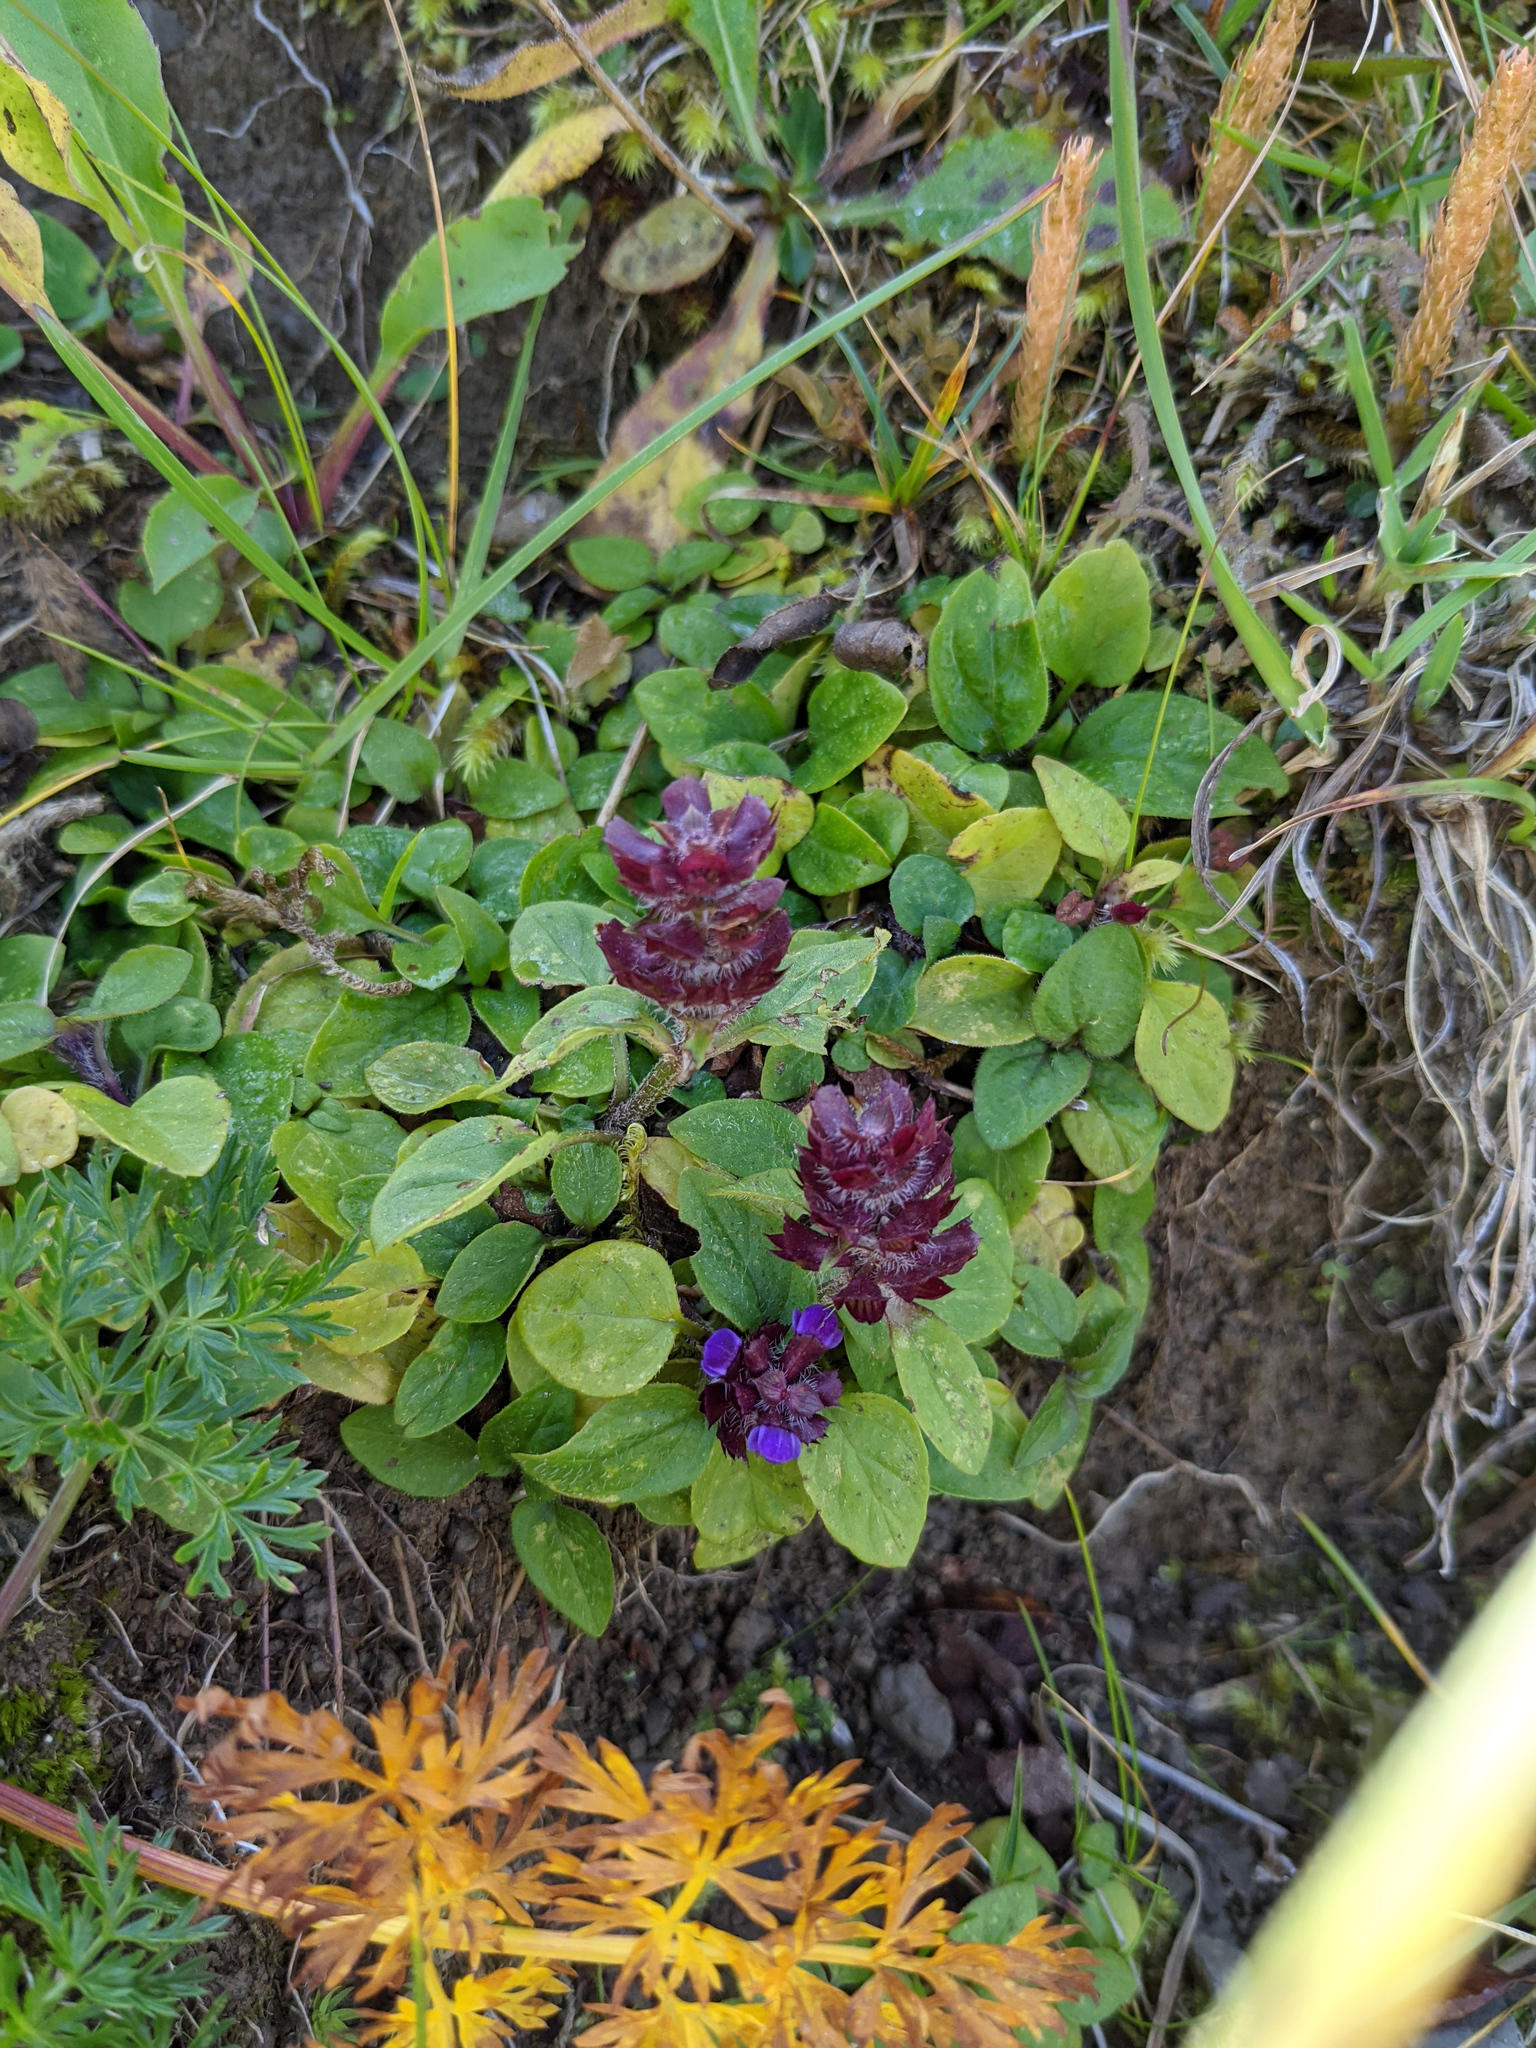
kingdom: Plantae
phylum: Tracheophyta
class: Magnoliopsida
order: Lamiales
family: Lamiaceae
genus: Prunella
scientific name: Prunella vulgaris
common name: Heal-all
